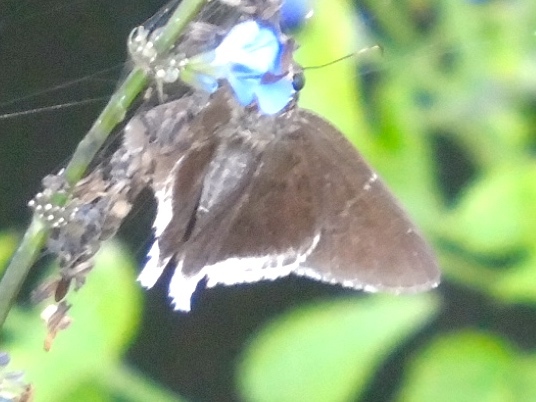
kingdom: Animalia
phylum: Arthropoda
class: Insecta
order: Lepidoptera
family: Hesperiidae
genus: Achalarus
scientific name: Achalarus
